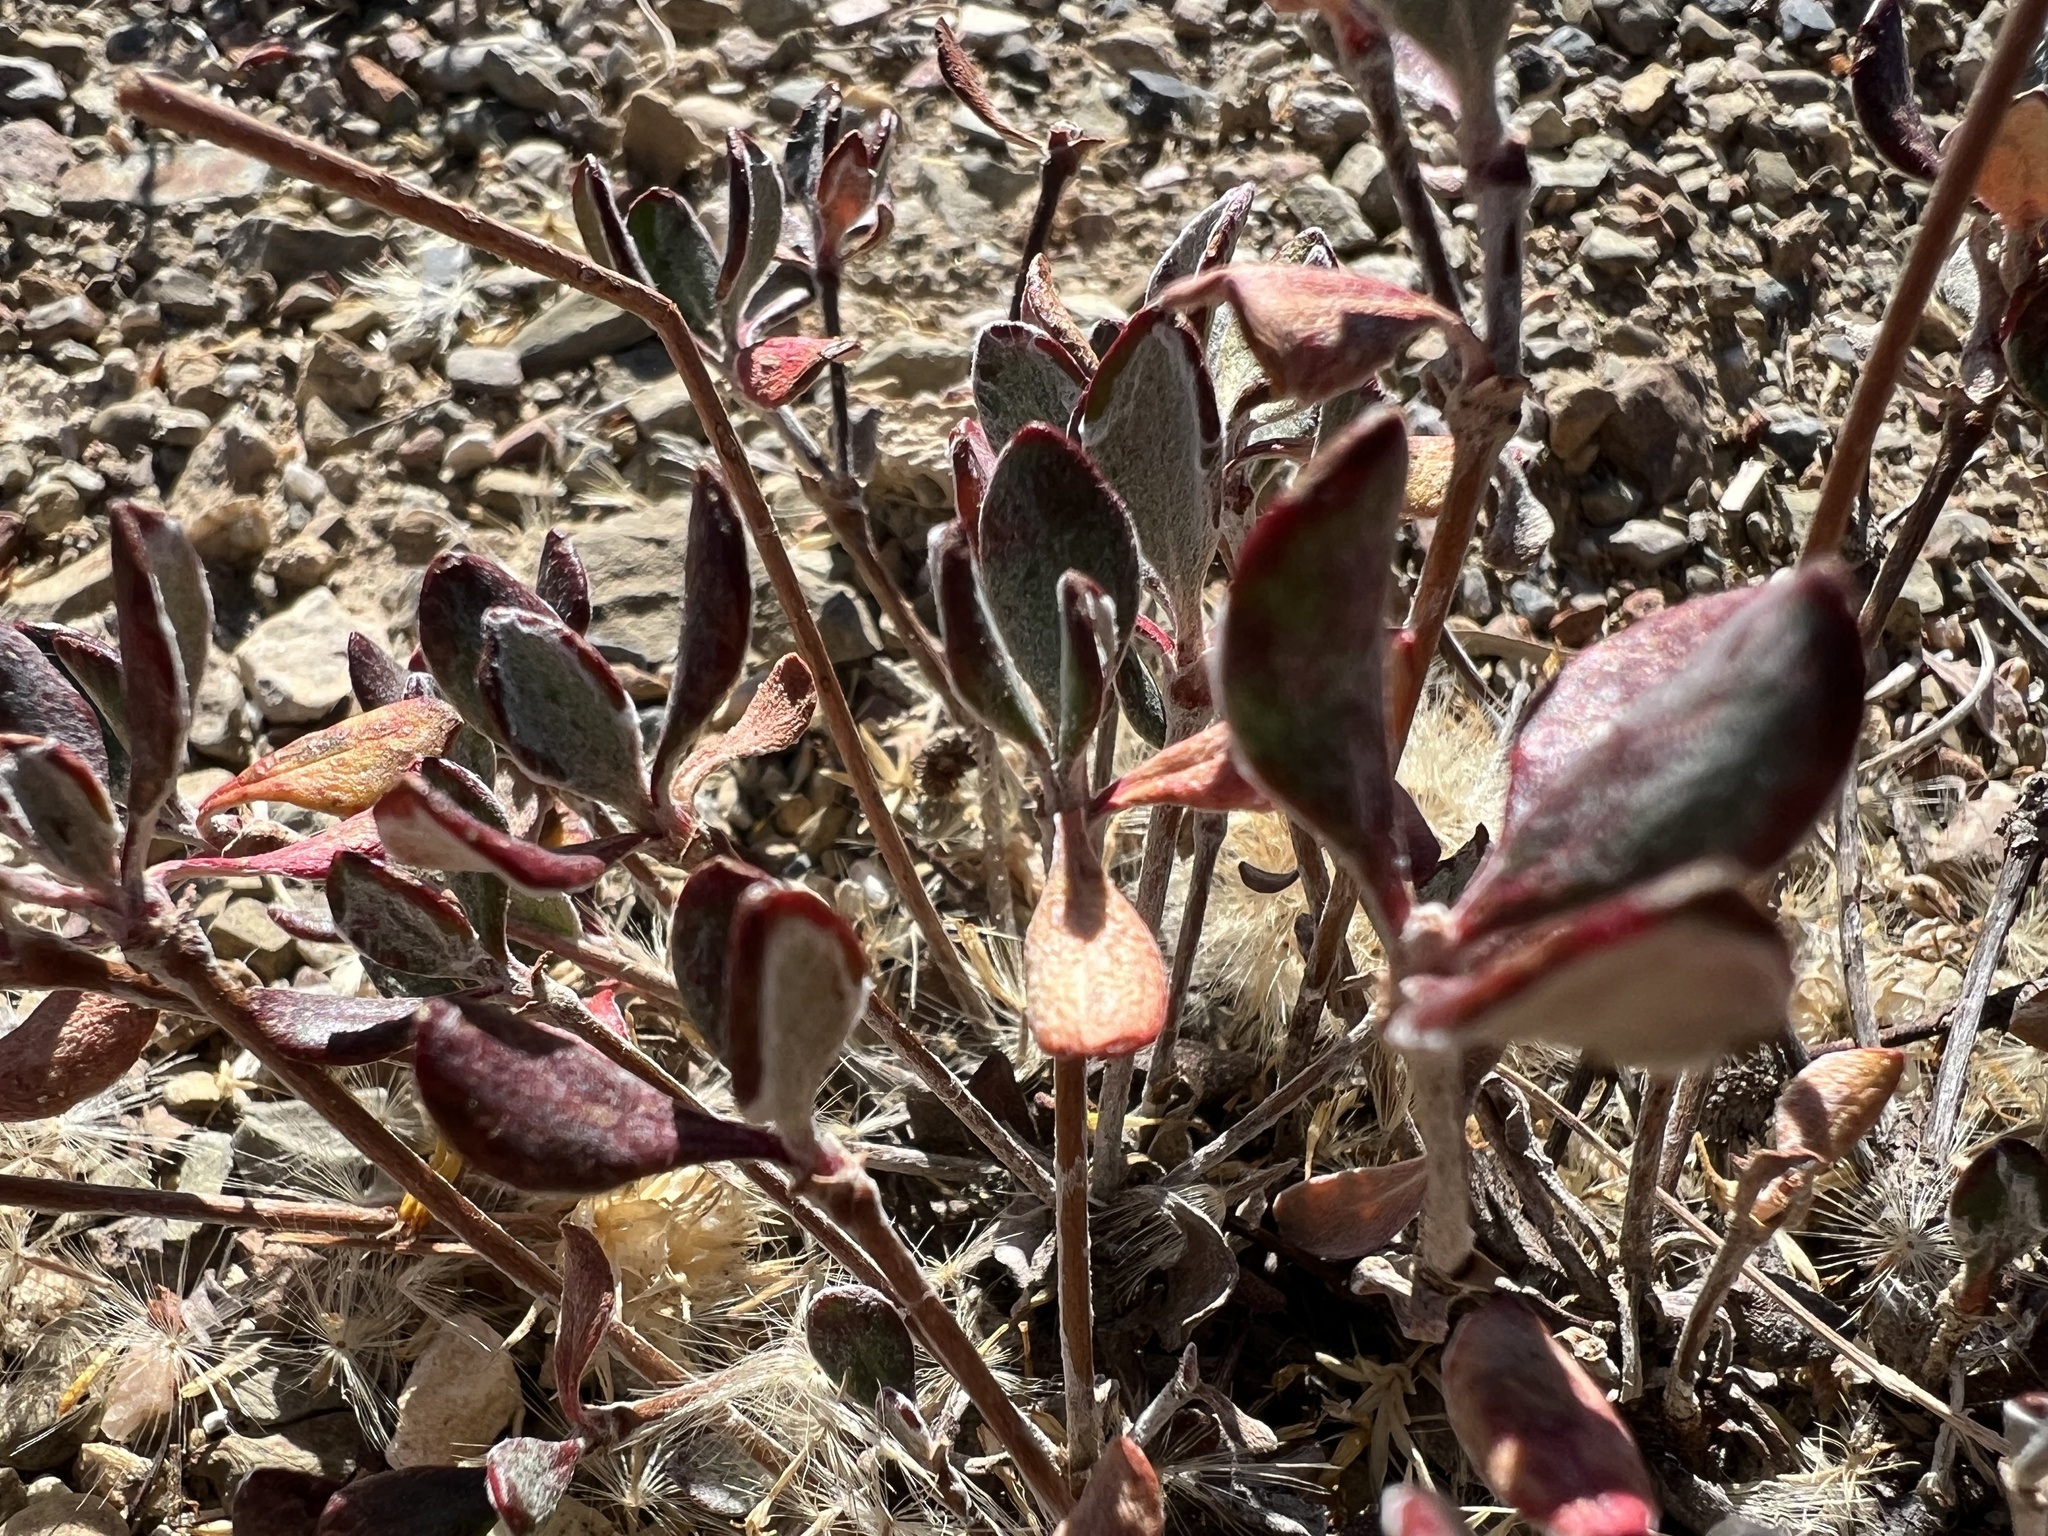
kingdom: Plantae
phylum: Tracheophyta
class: Magnoliopsida
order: Caryophyllales
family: Polygonaceae
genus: Eriogonum
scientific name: Eriogonum umbellatum
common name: Sulfur-buckwheat
